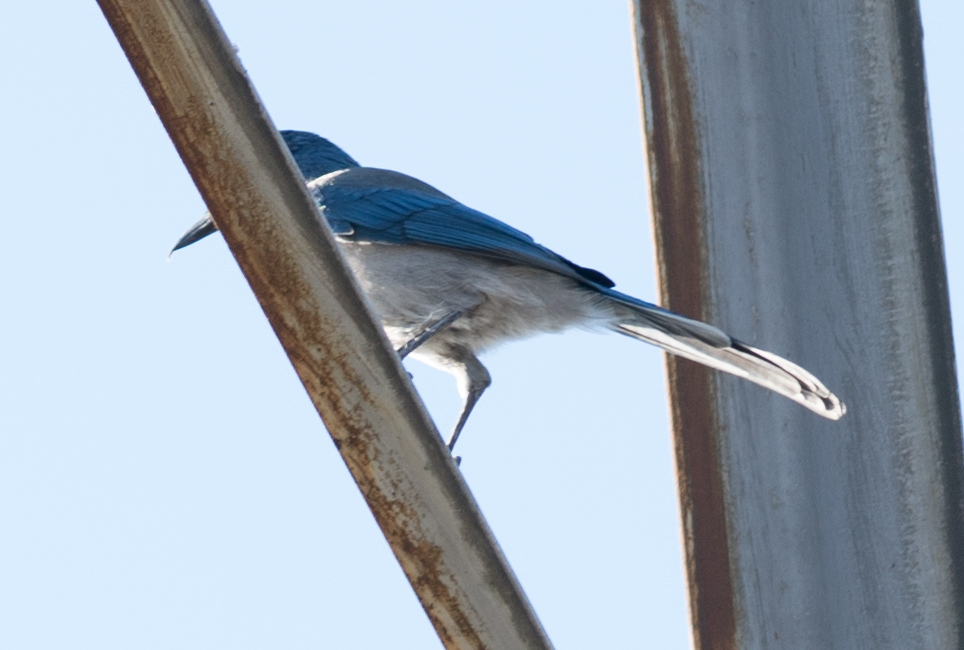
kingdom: Animalia
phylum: Chordata
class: Aves
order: Passeriformes
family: Corvidae
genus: Aphelocoma
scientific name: Aphelocoma californica
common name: California scrub-jay
